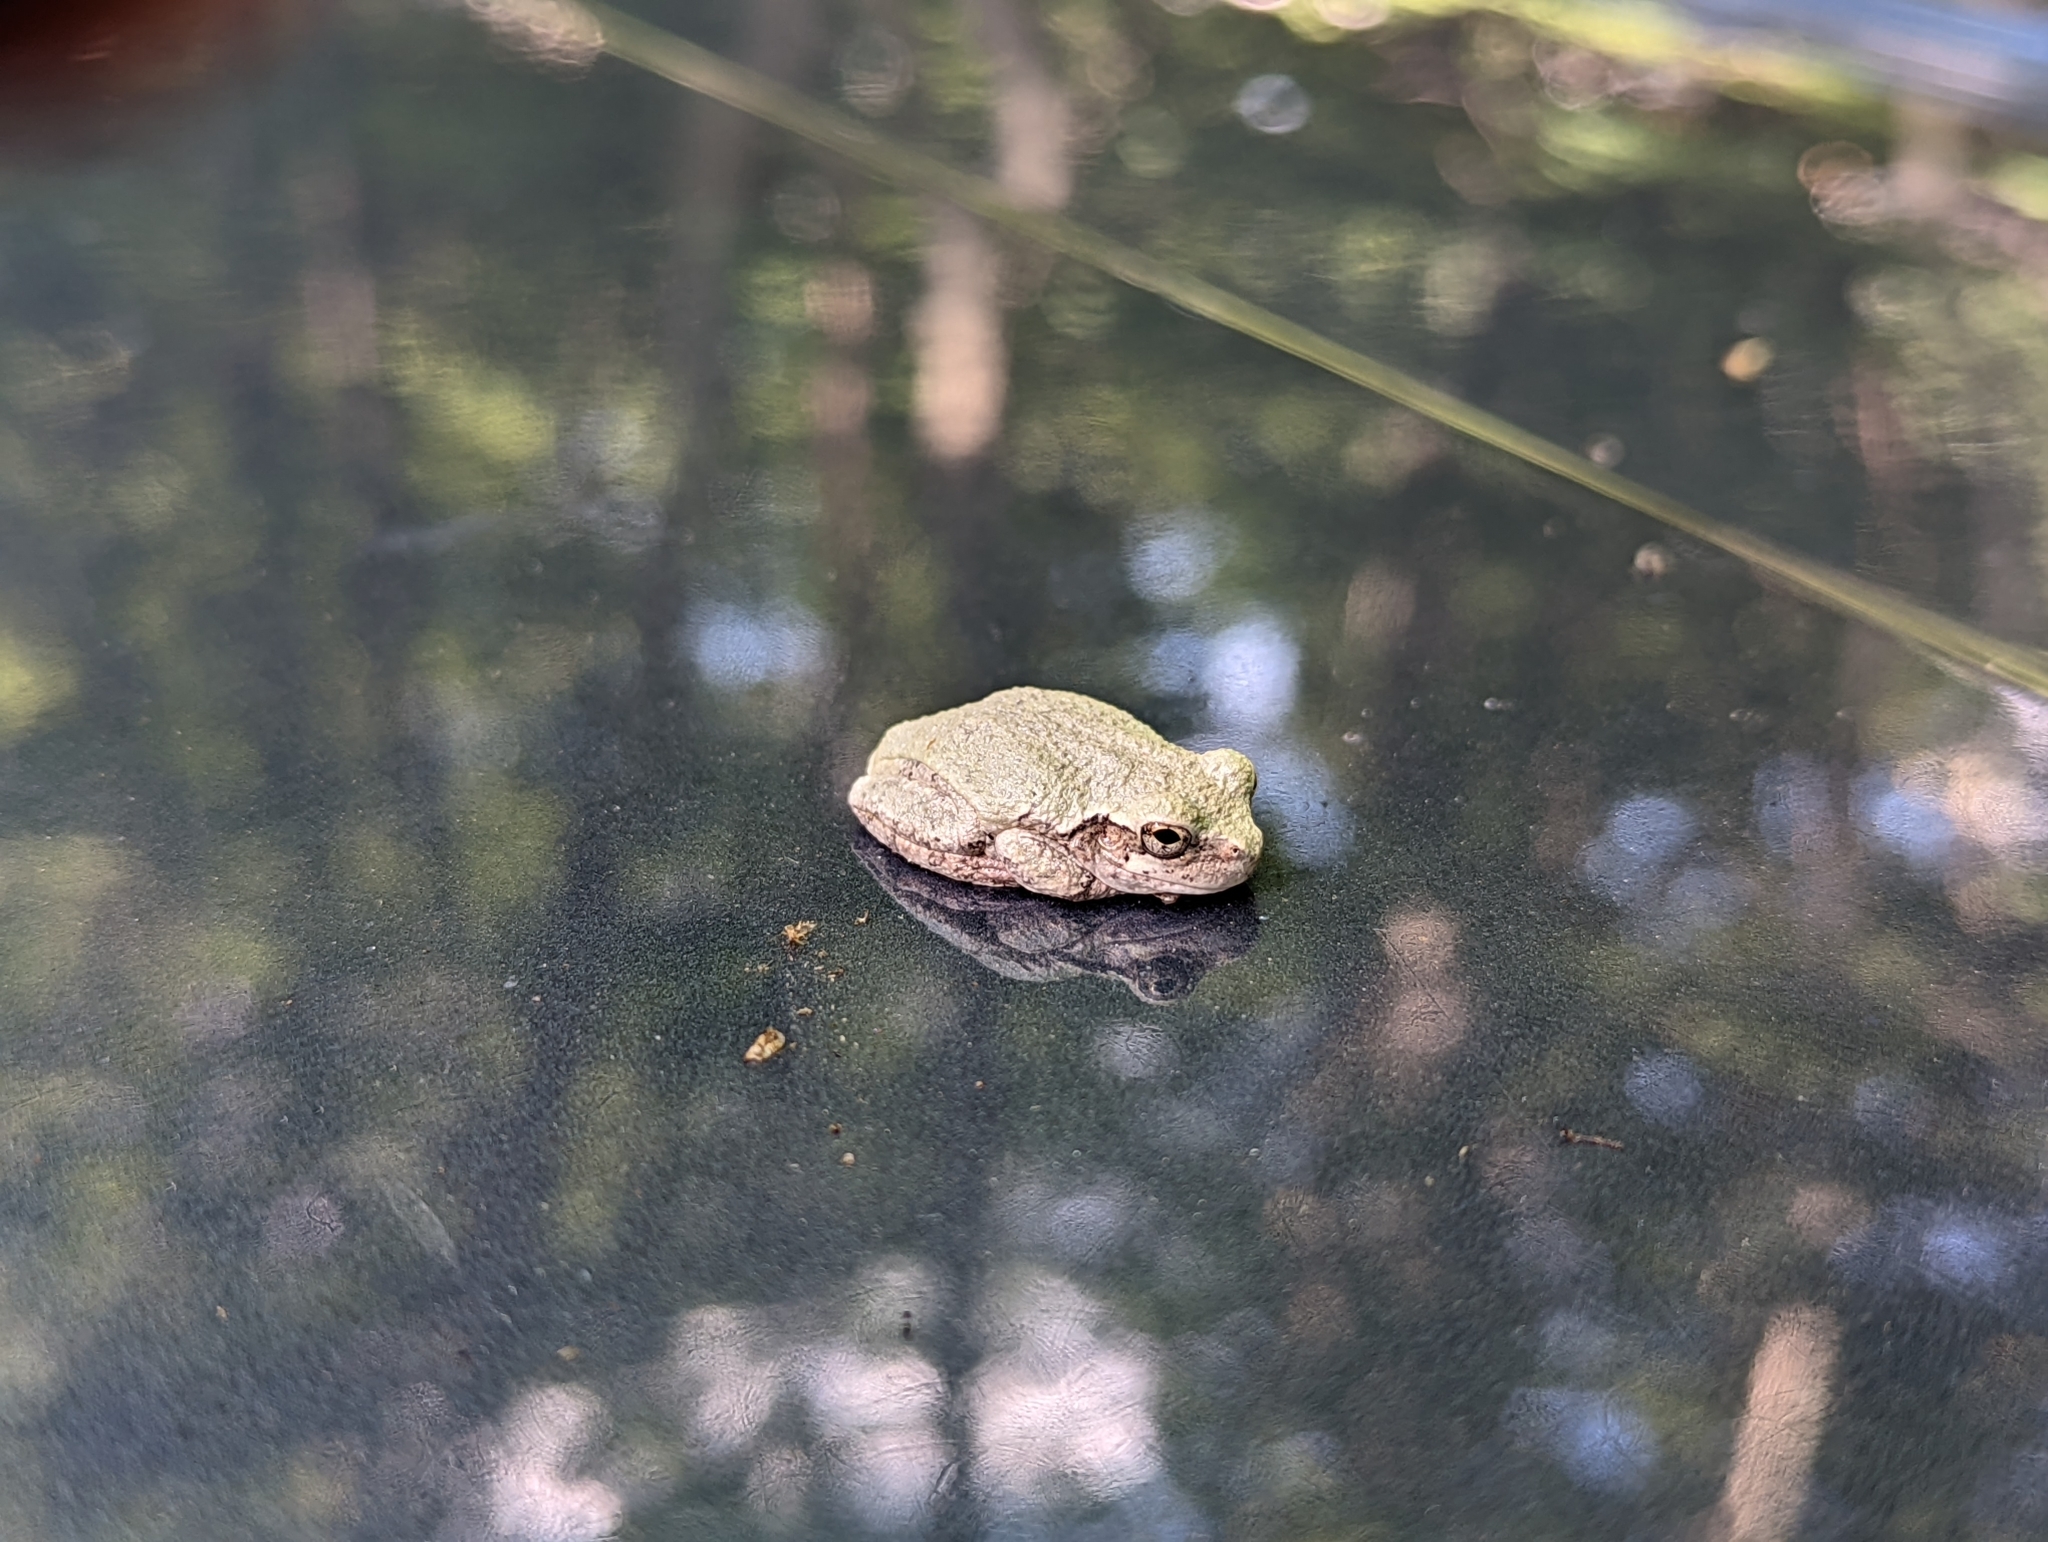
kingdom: Animalia
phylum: Chordata
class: Amphibia
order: Anura
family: Hylidae
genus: Dryophytes
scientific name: Dryophytes versicolor
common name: Gray treefrog
